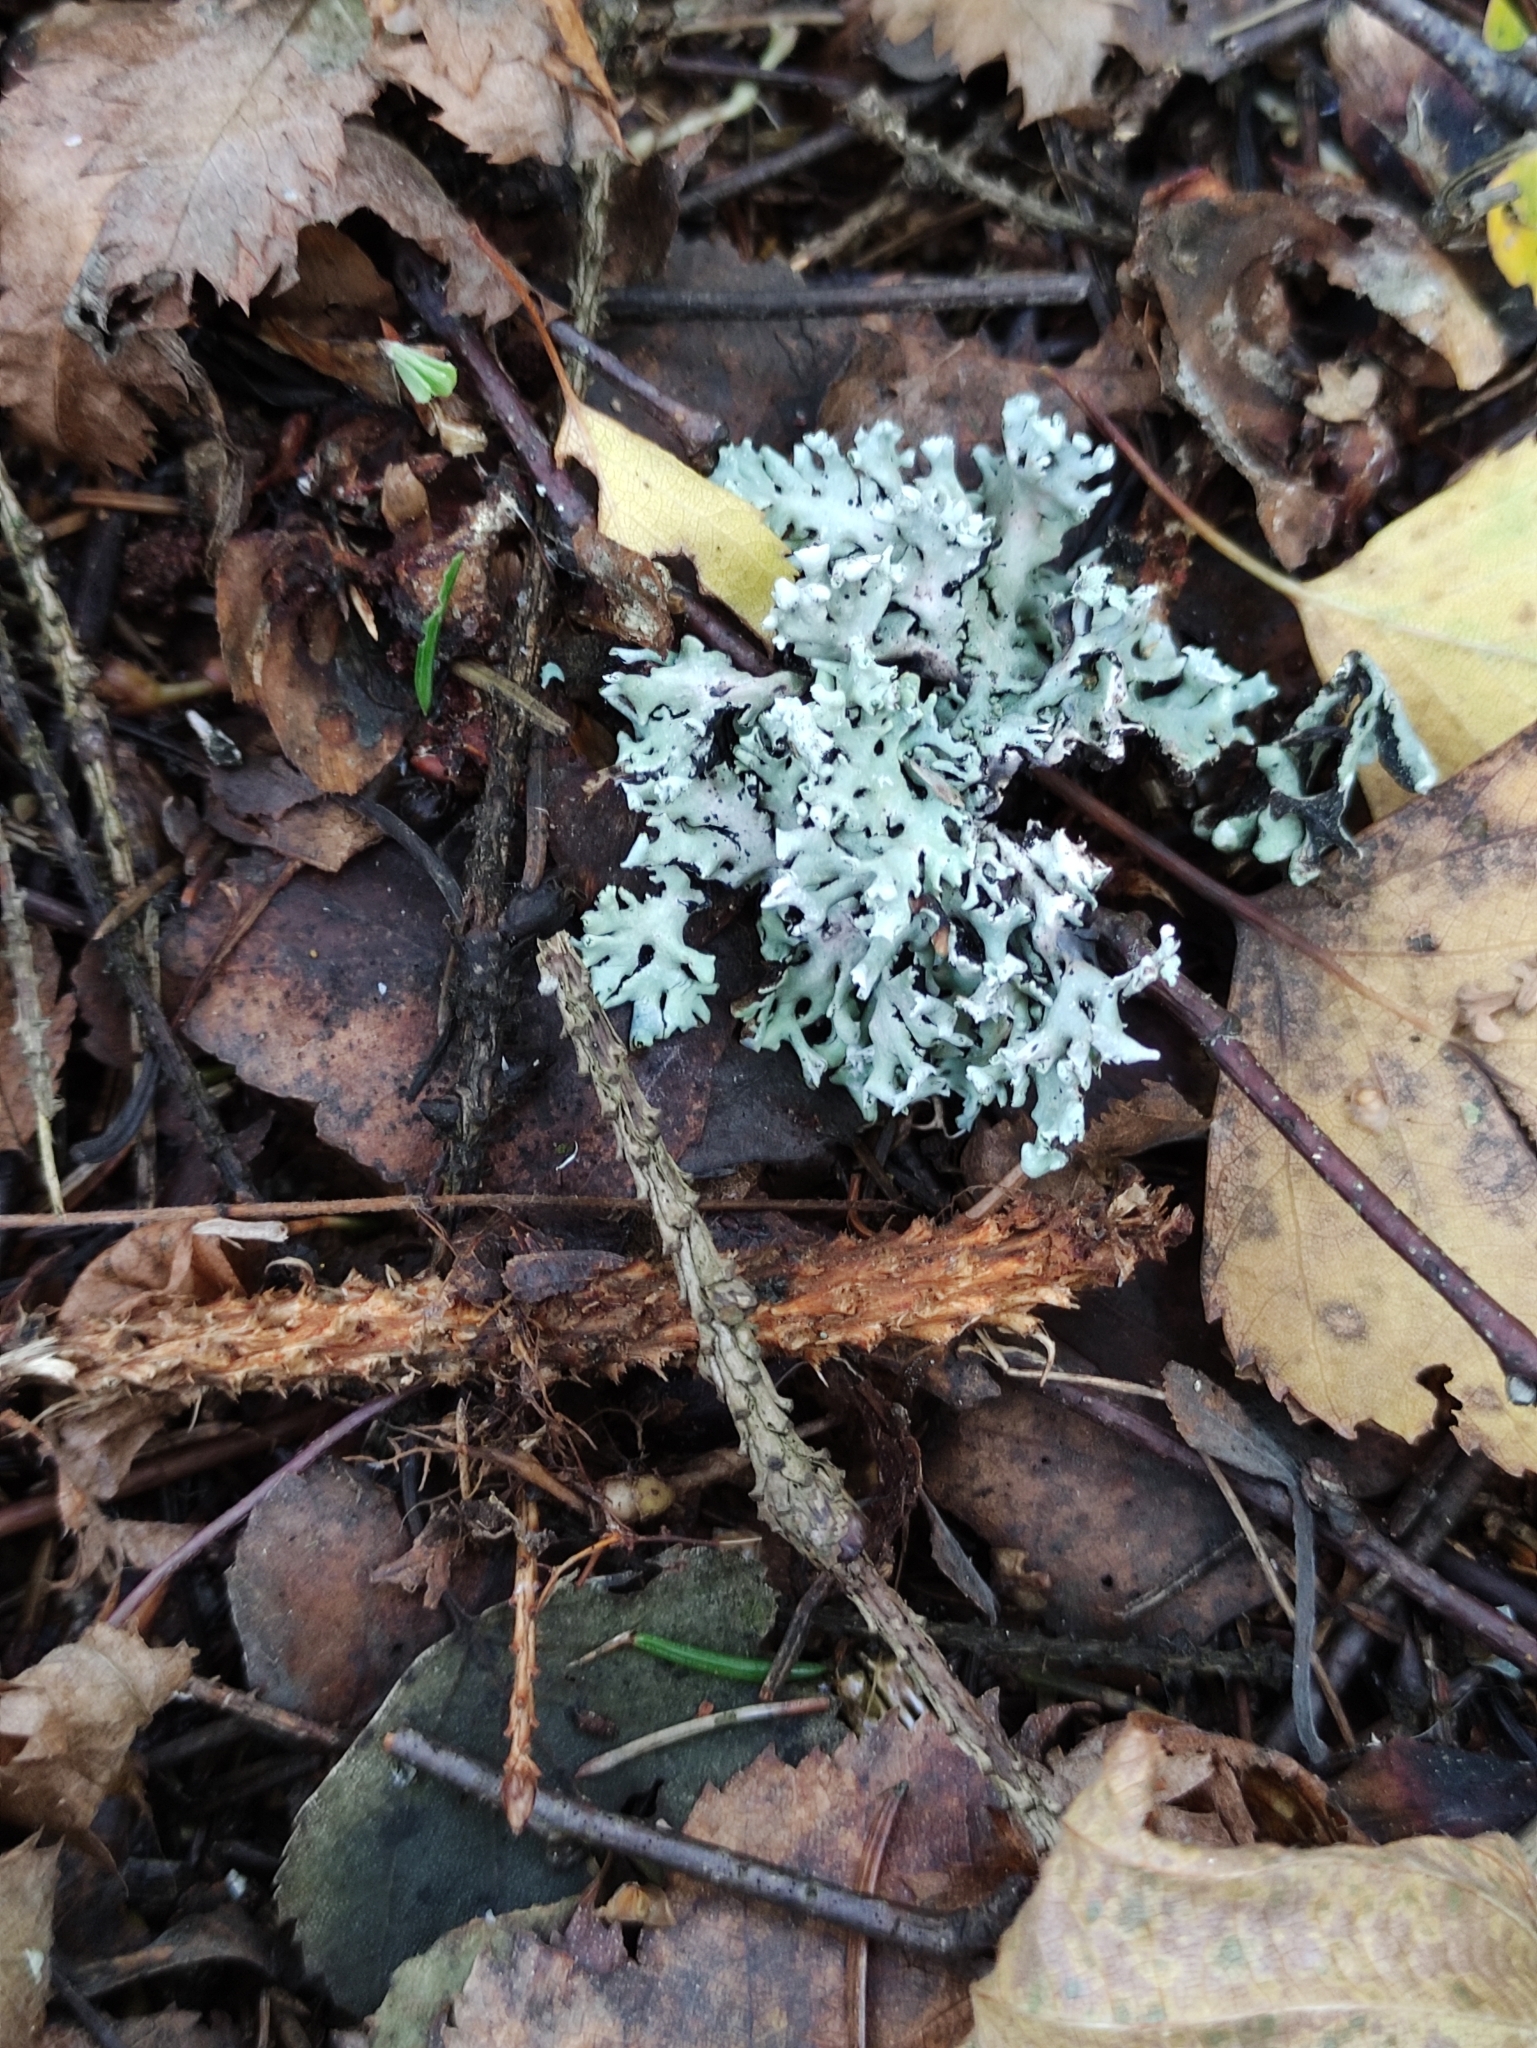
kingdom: Fungi
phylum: Ascomycota
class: Lecanoromycetes
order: Lecanorales
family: Parmeliaceae
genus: Hypogymnia
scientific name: Hypogymnia physodes
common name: Dark crottle
